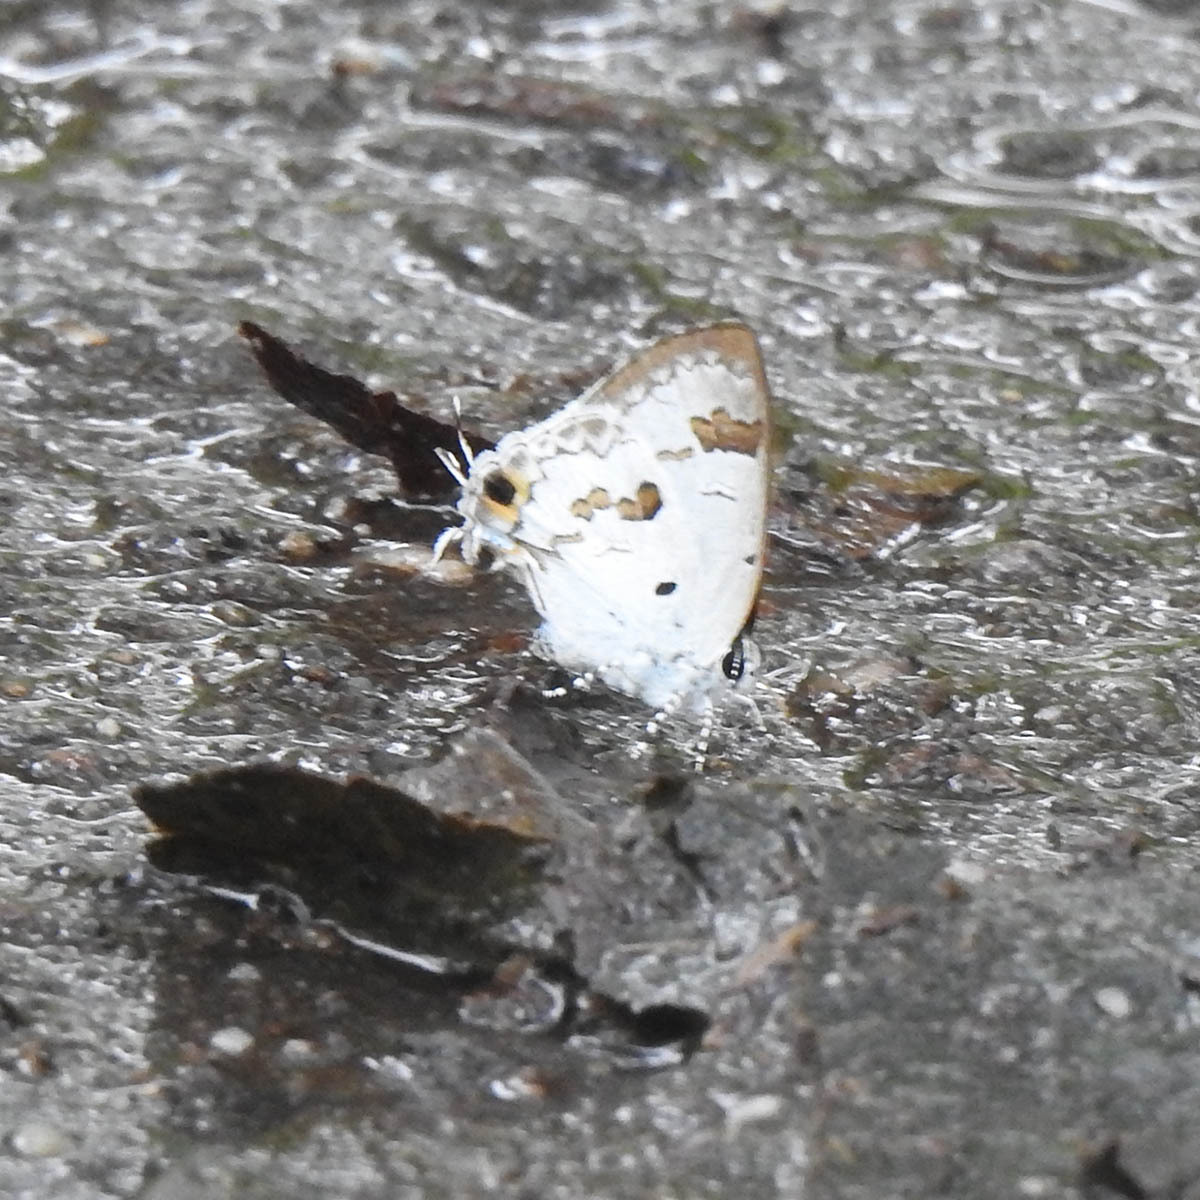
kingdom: Animalia
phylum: Arthropoda
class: Insecta
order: Lepidoptera
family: Lycaenidae
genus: Chliaria
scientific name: Chliaria othona
